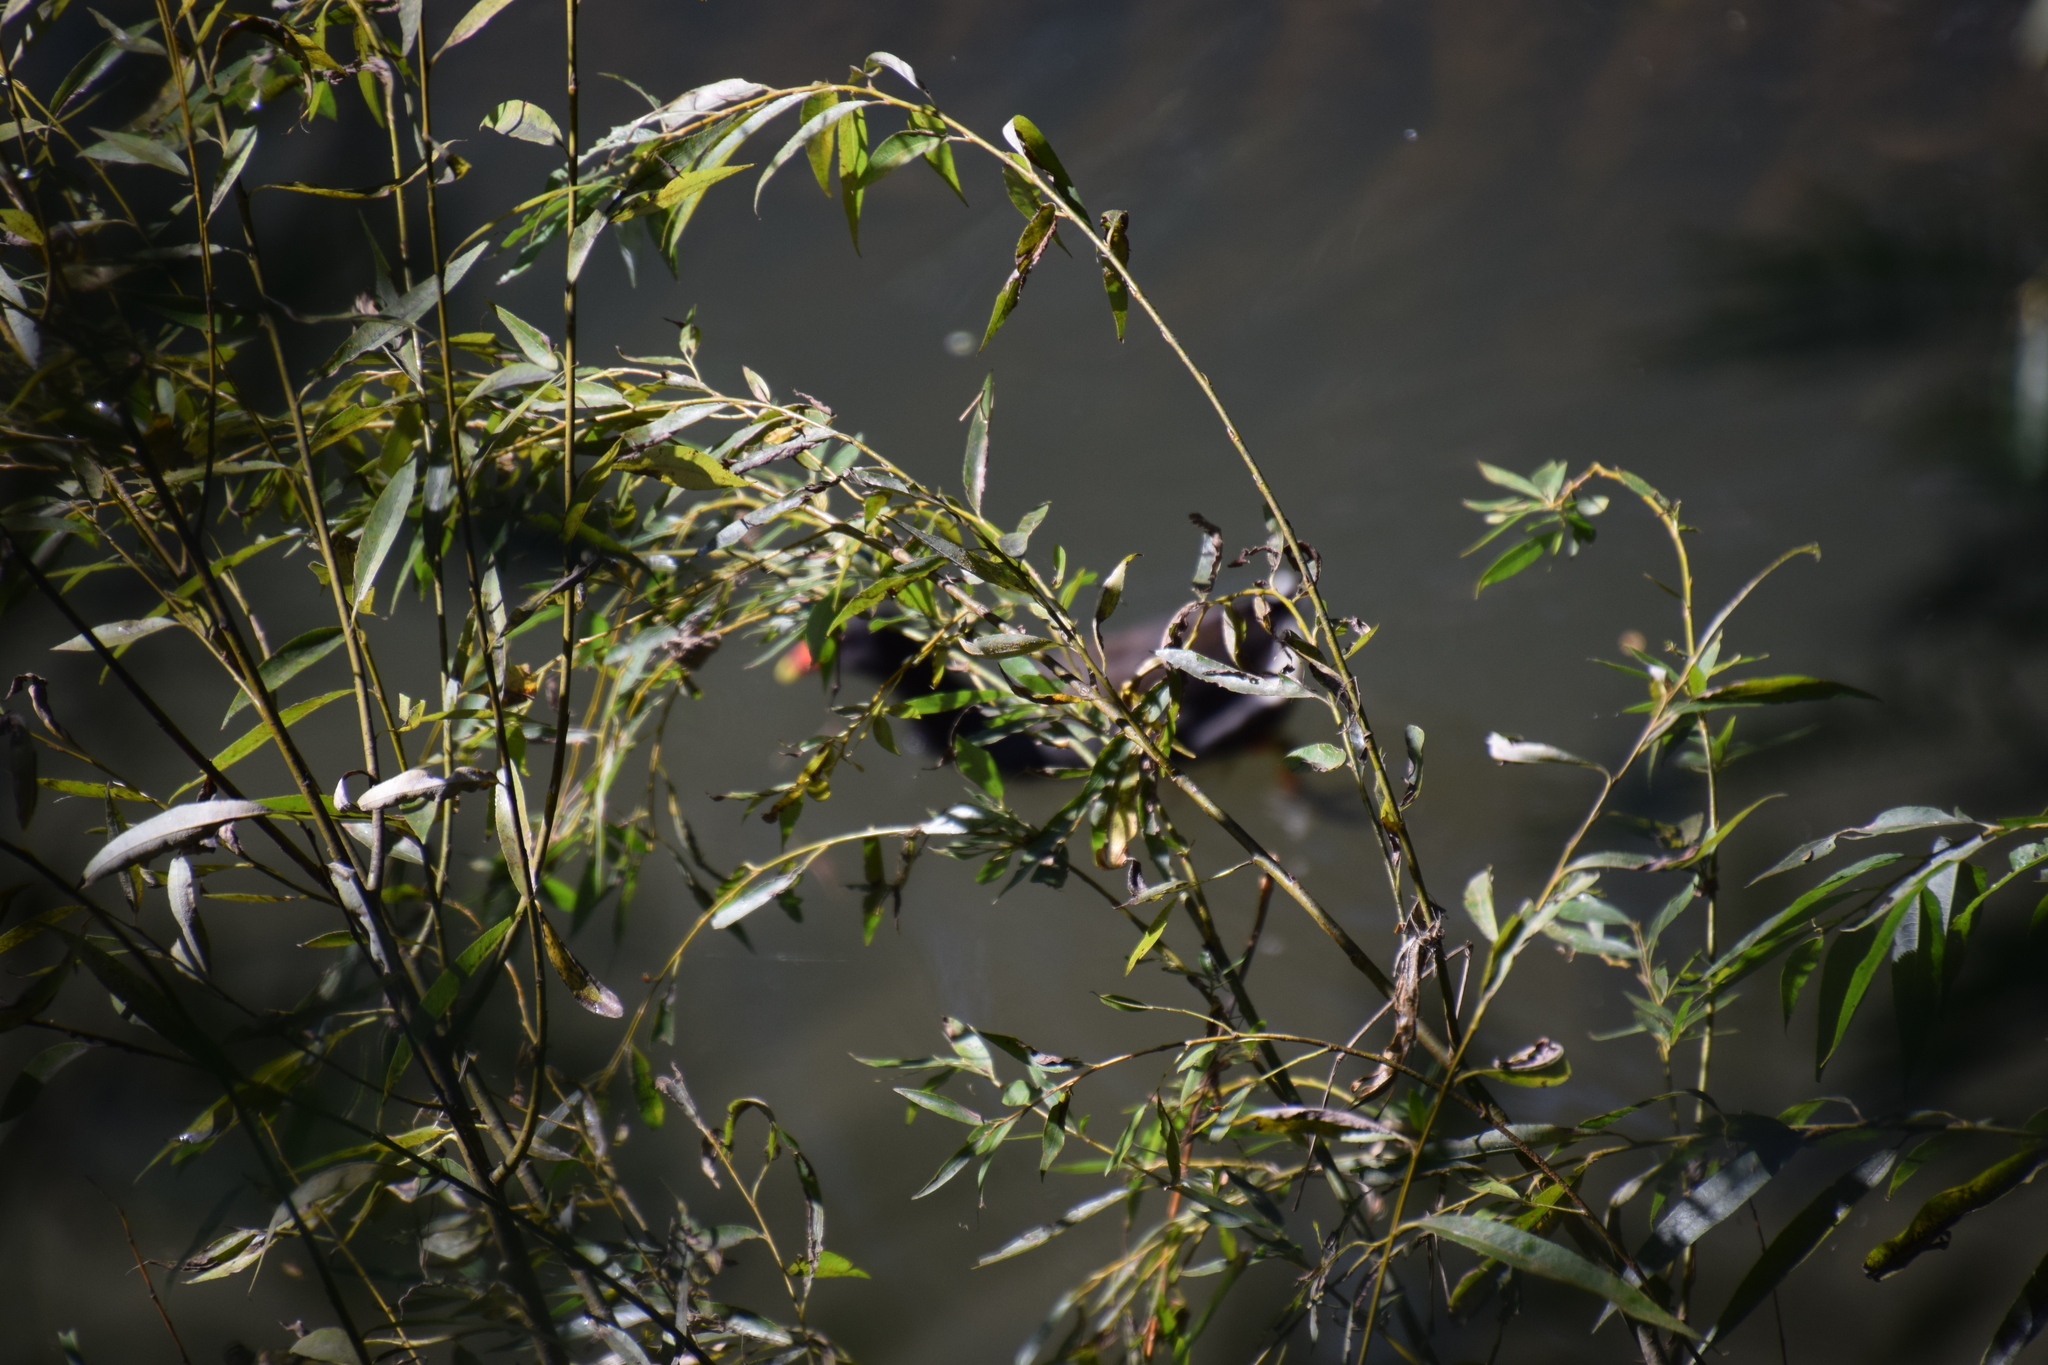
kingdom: Animalia
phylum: Chordata
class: Aves
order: Gruiformes
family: Rallidae
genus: Gallinula
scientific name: Gallinula tenebrosa
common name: Dusky moorhen
